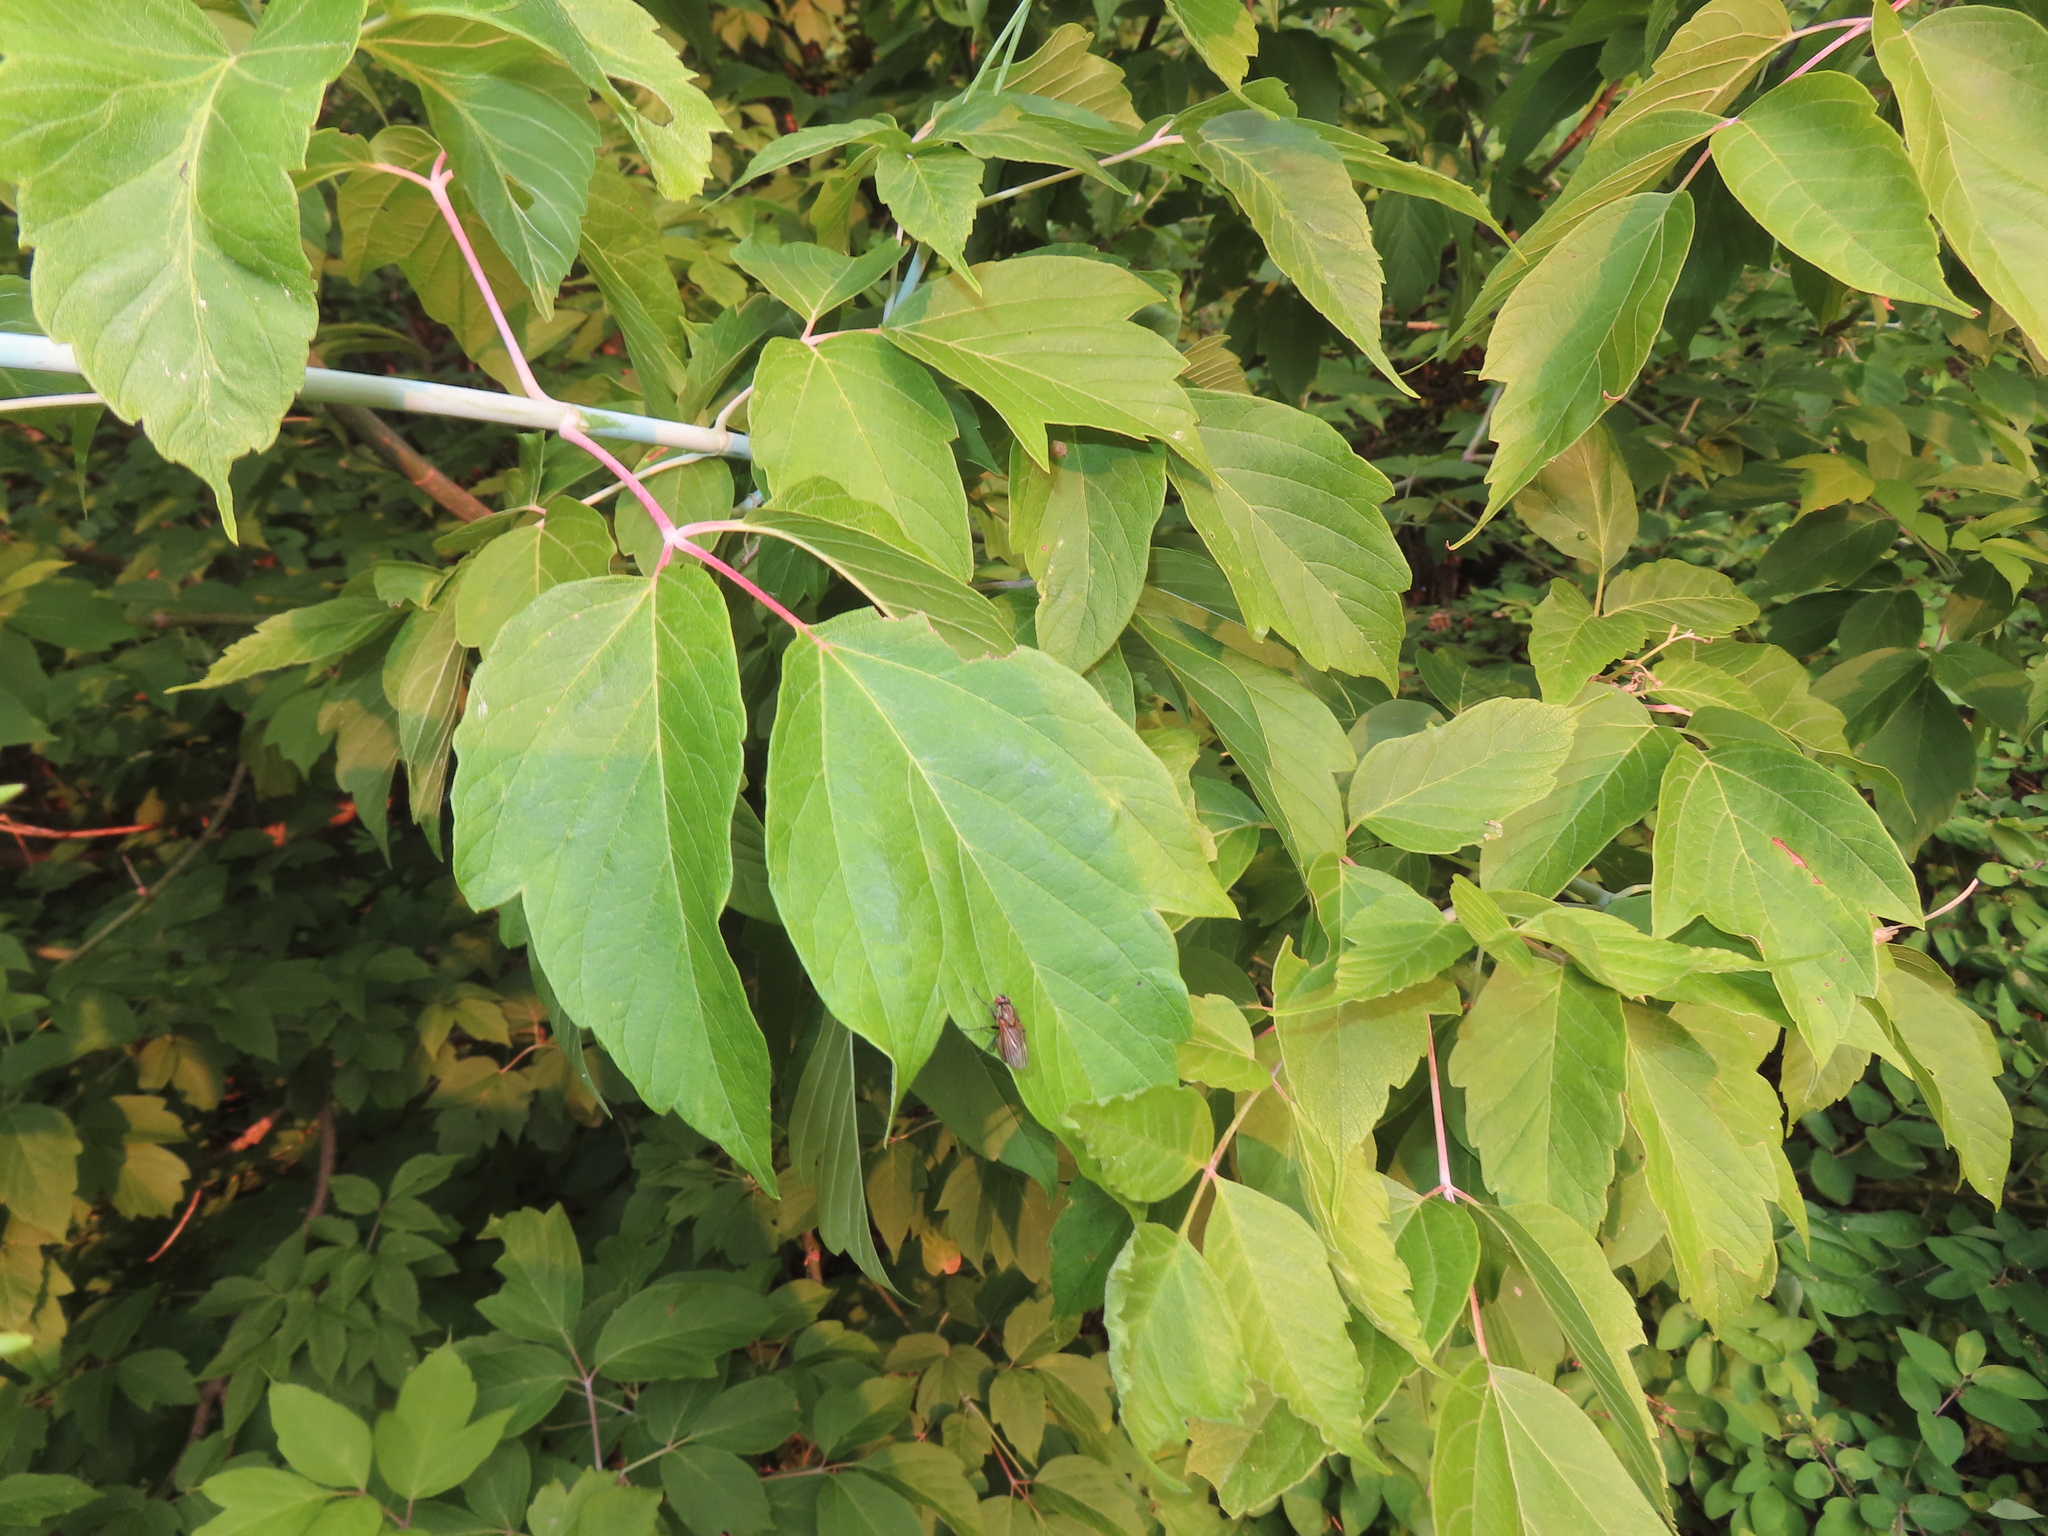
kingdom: Plantae
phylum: Tracheophyta
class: Magnoliopsida
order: Sapindales
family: Sapindaceae
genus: Acer
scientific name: Acer negundo
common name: Ashleaf maple
